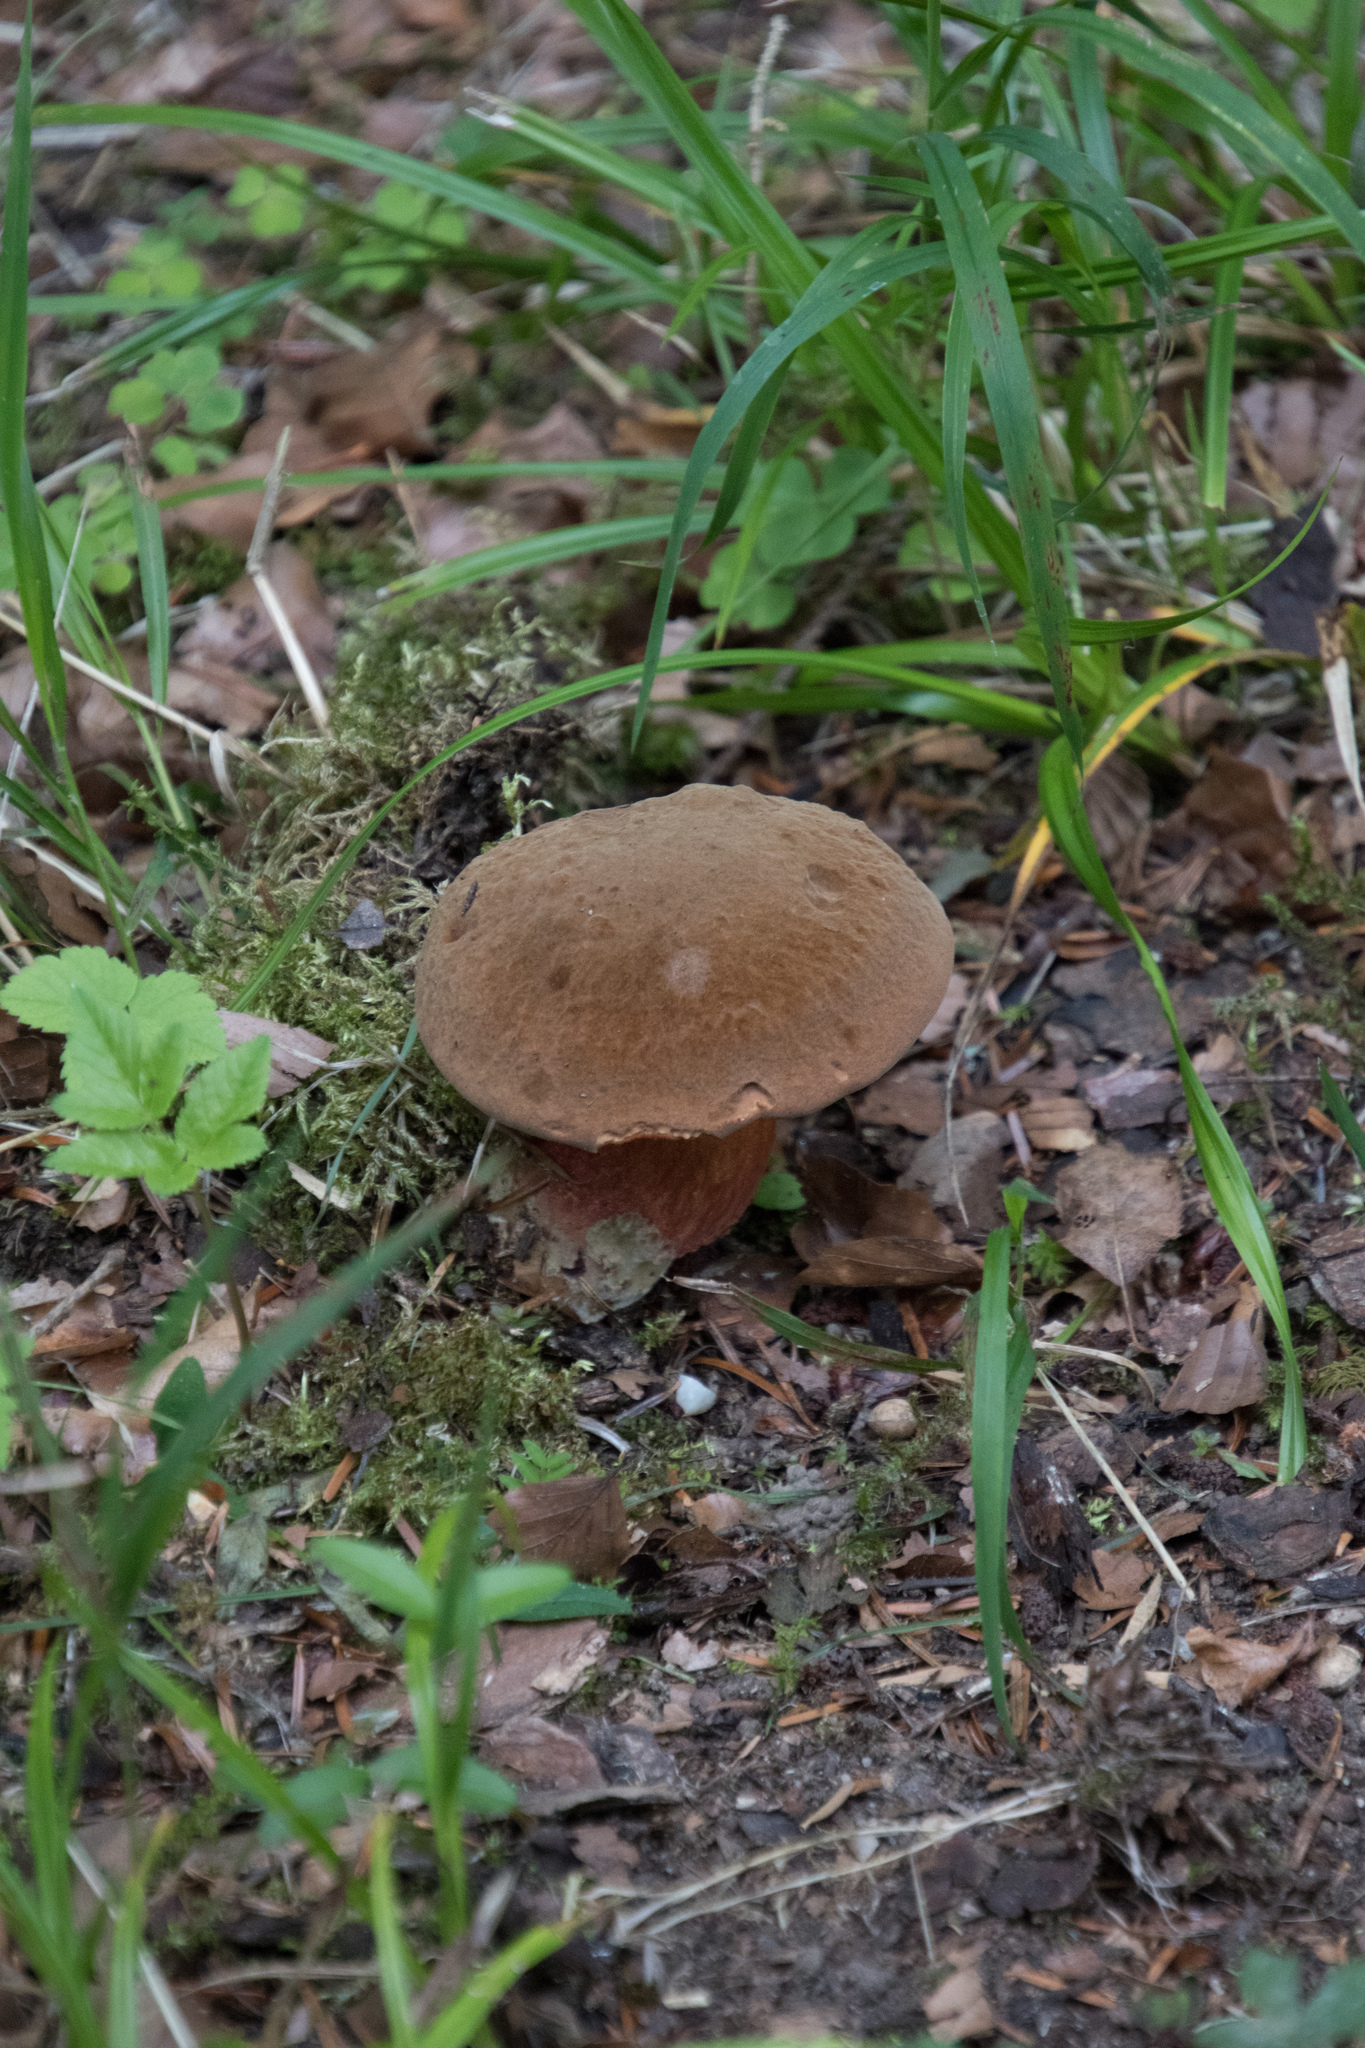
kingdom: Fungi
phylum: Basidiomycota
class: Agaricomycetes
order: Boletales
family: Boletaceae
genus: Neoboletus
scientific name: Neoboletus luridiformis
